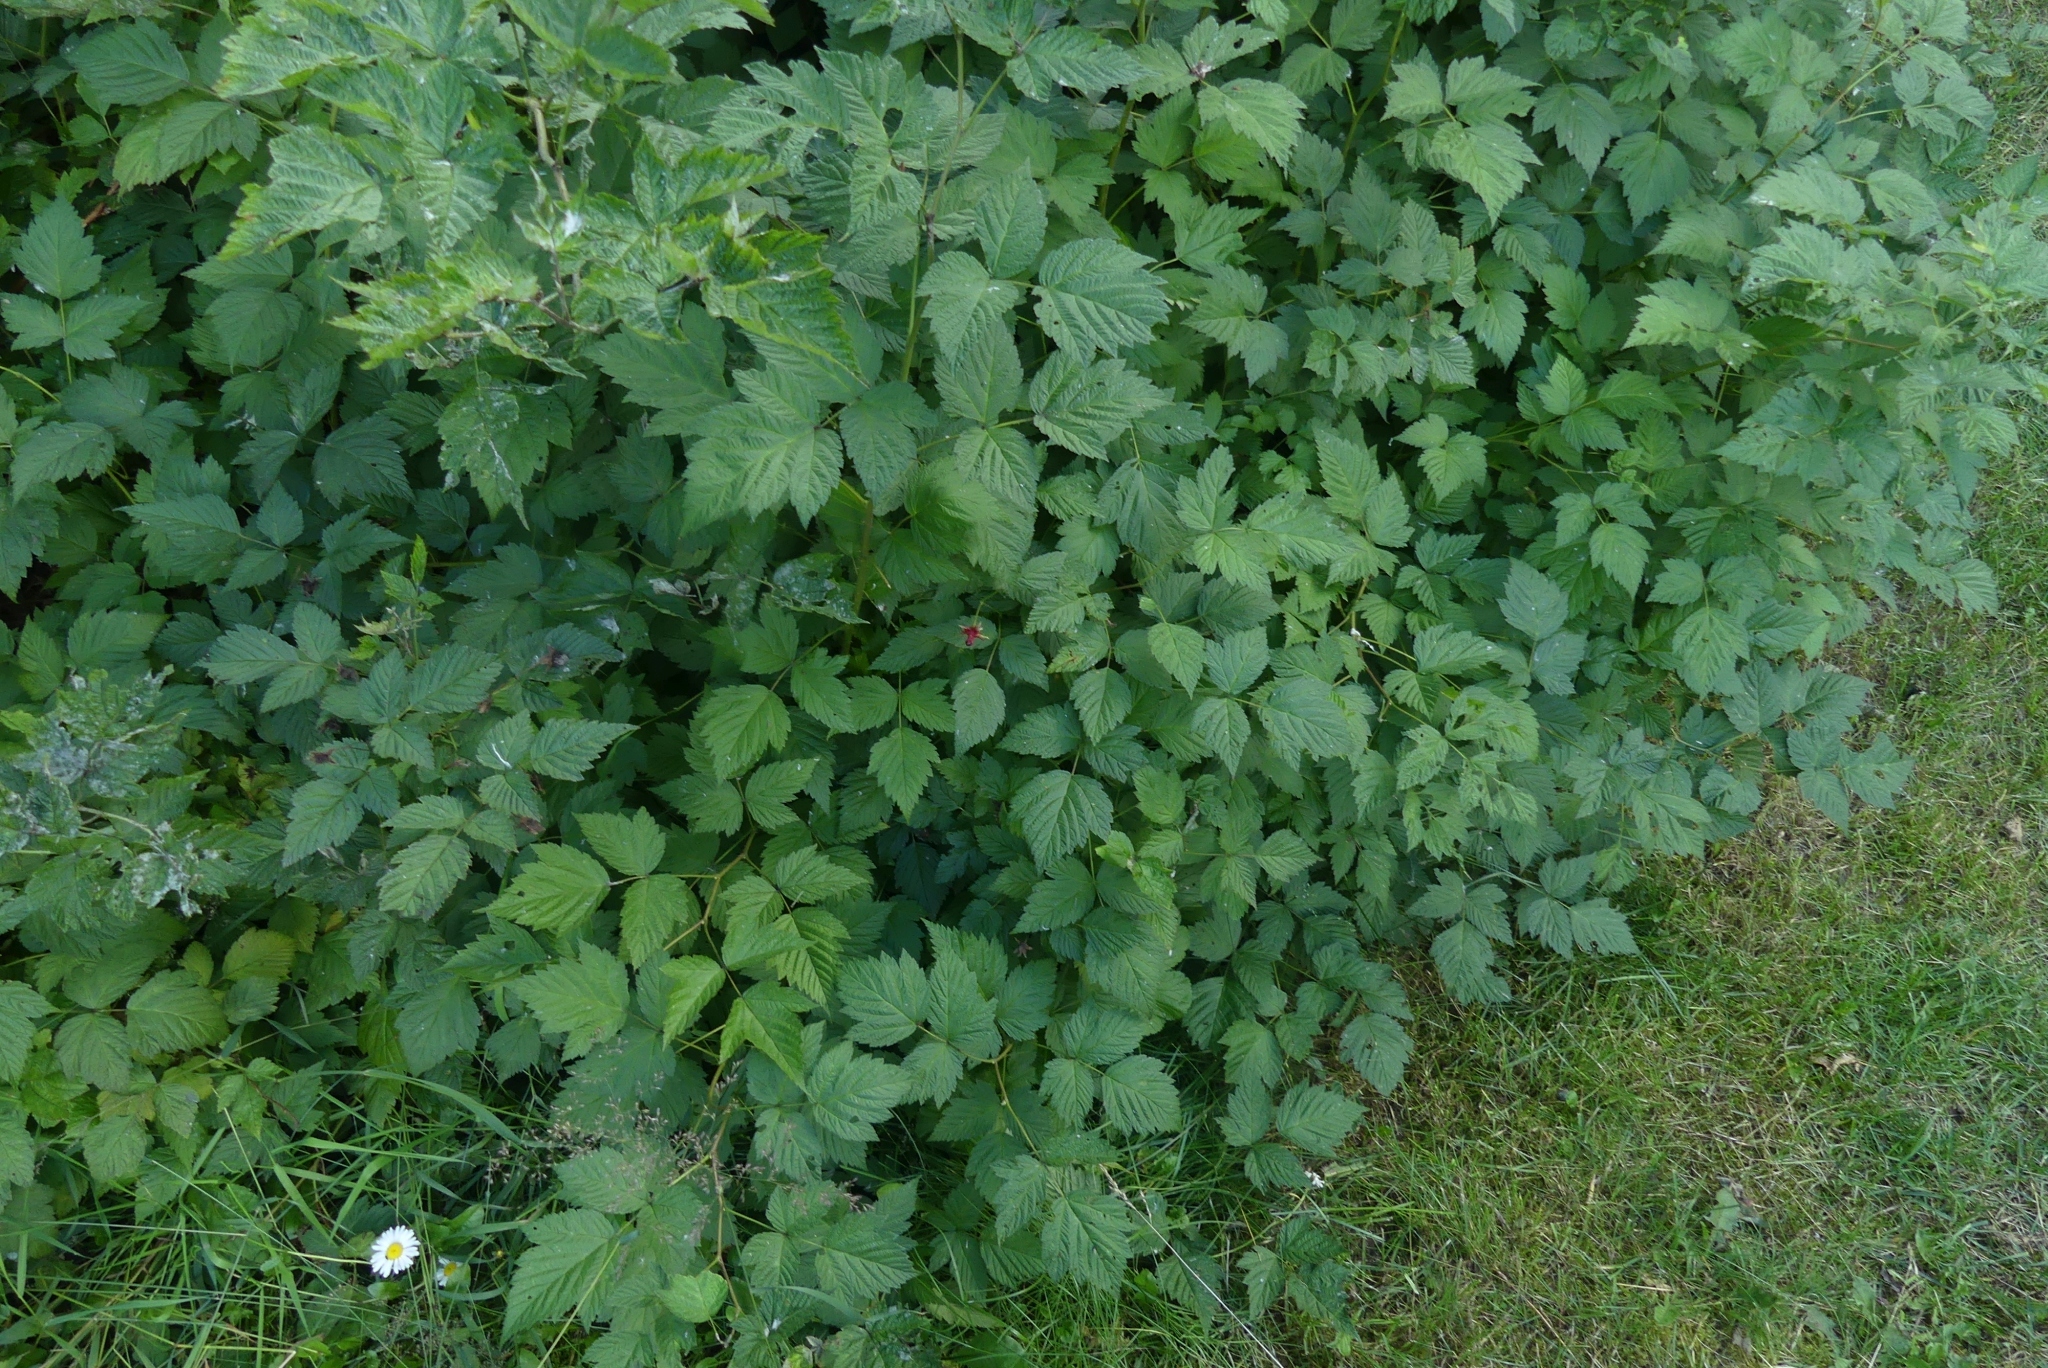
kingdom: Plantae
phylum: Tracheophyta
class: Magnoliopsida
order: Rosales
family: Rosaceae
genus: Rubus
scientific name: Rubus spectabilis
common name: Salmonberry
